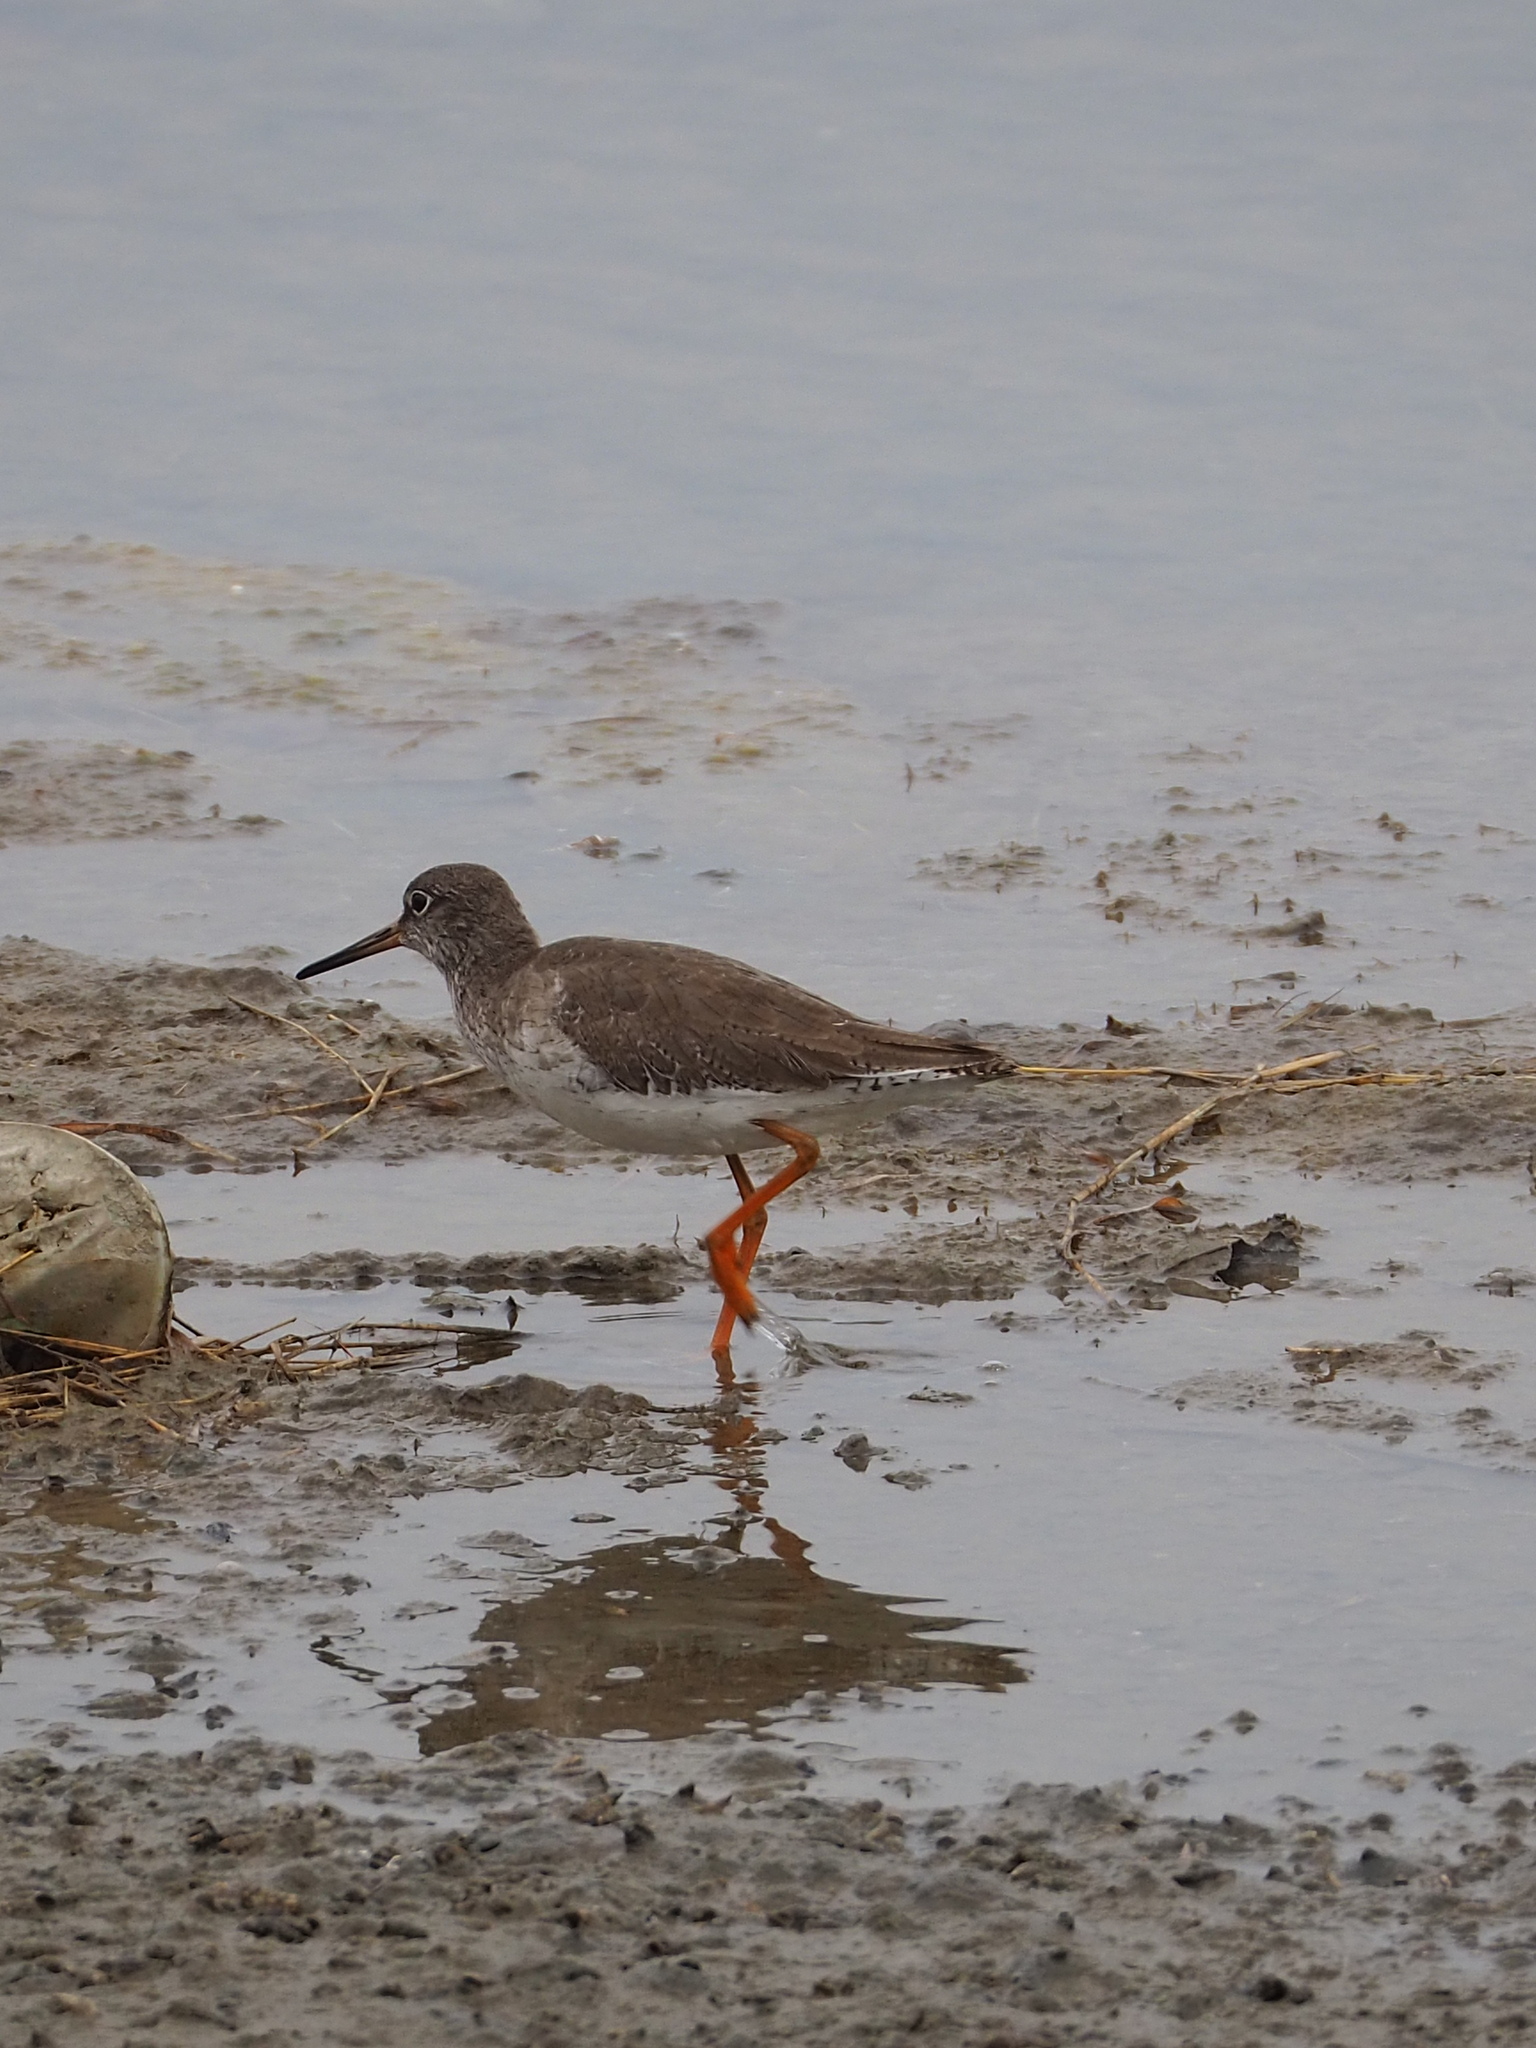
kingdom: Animalia
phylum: Chordata
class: Aves
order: Charadriiformes
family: Scolopacidae
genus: Tringa
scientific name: Tringa totanus
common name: Common redshank
